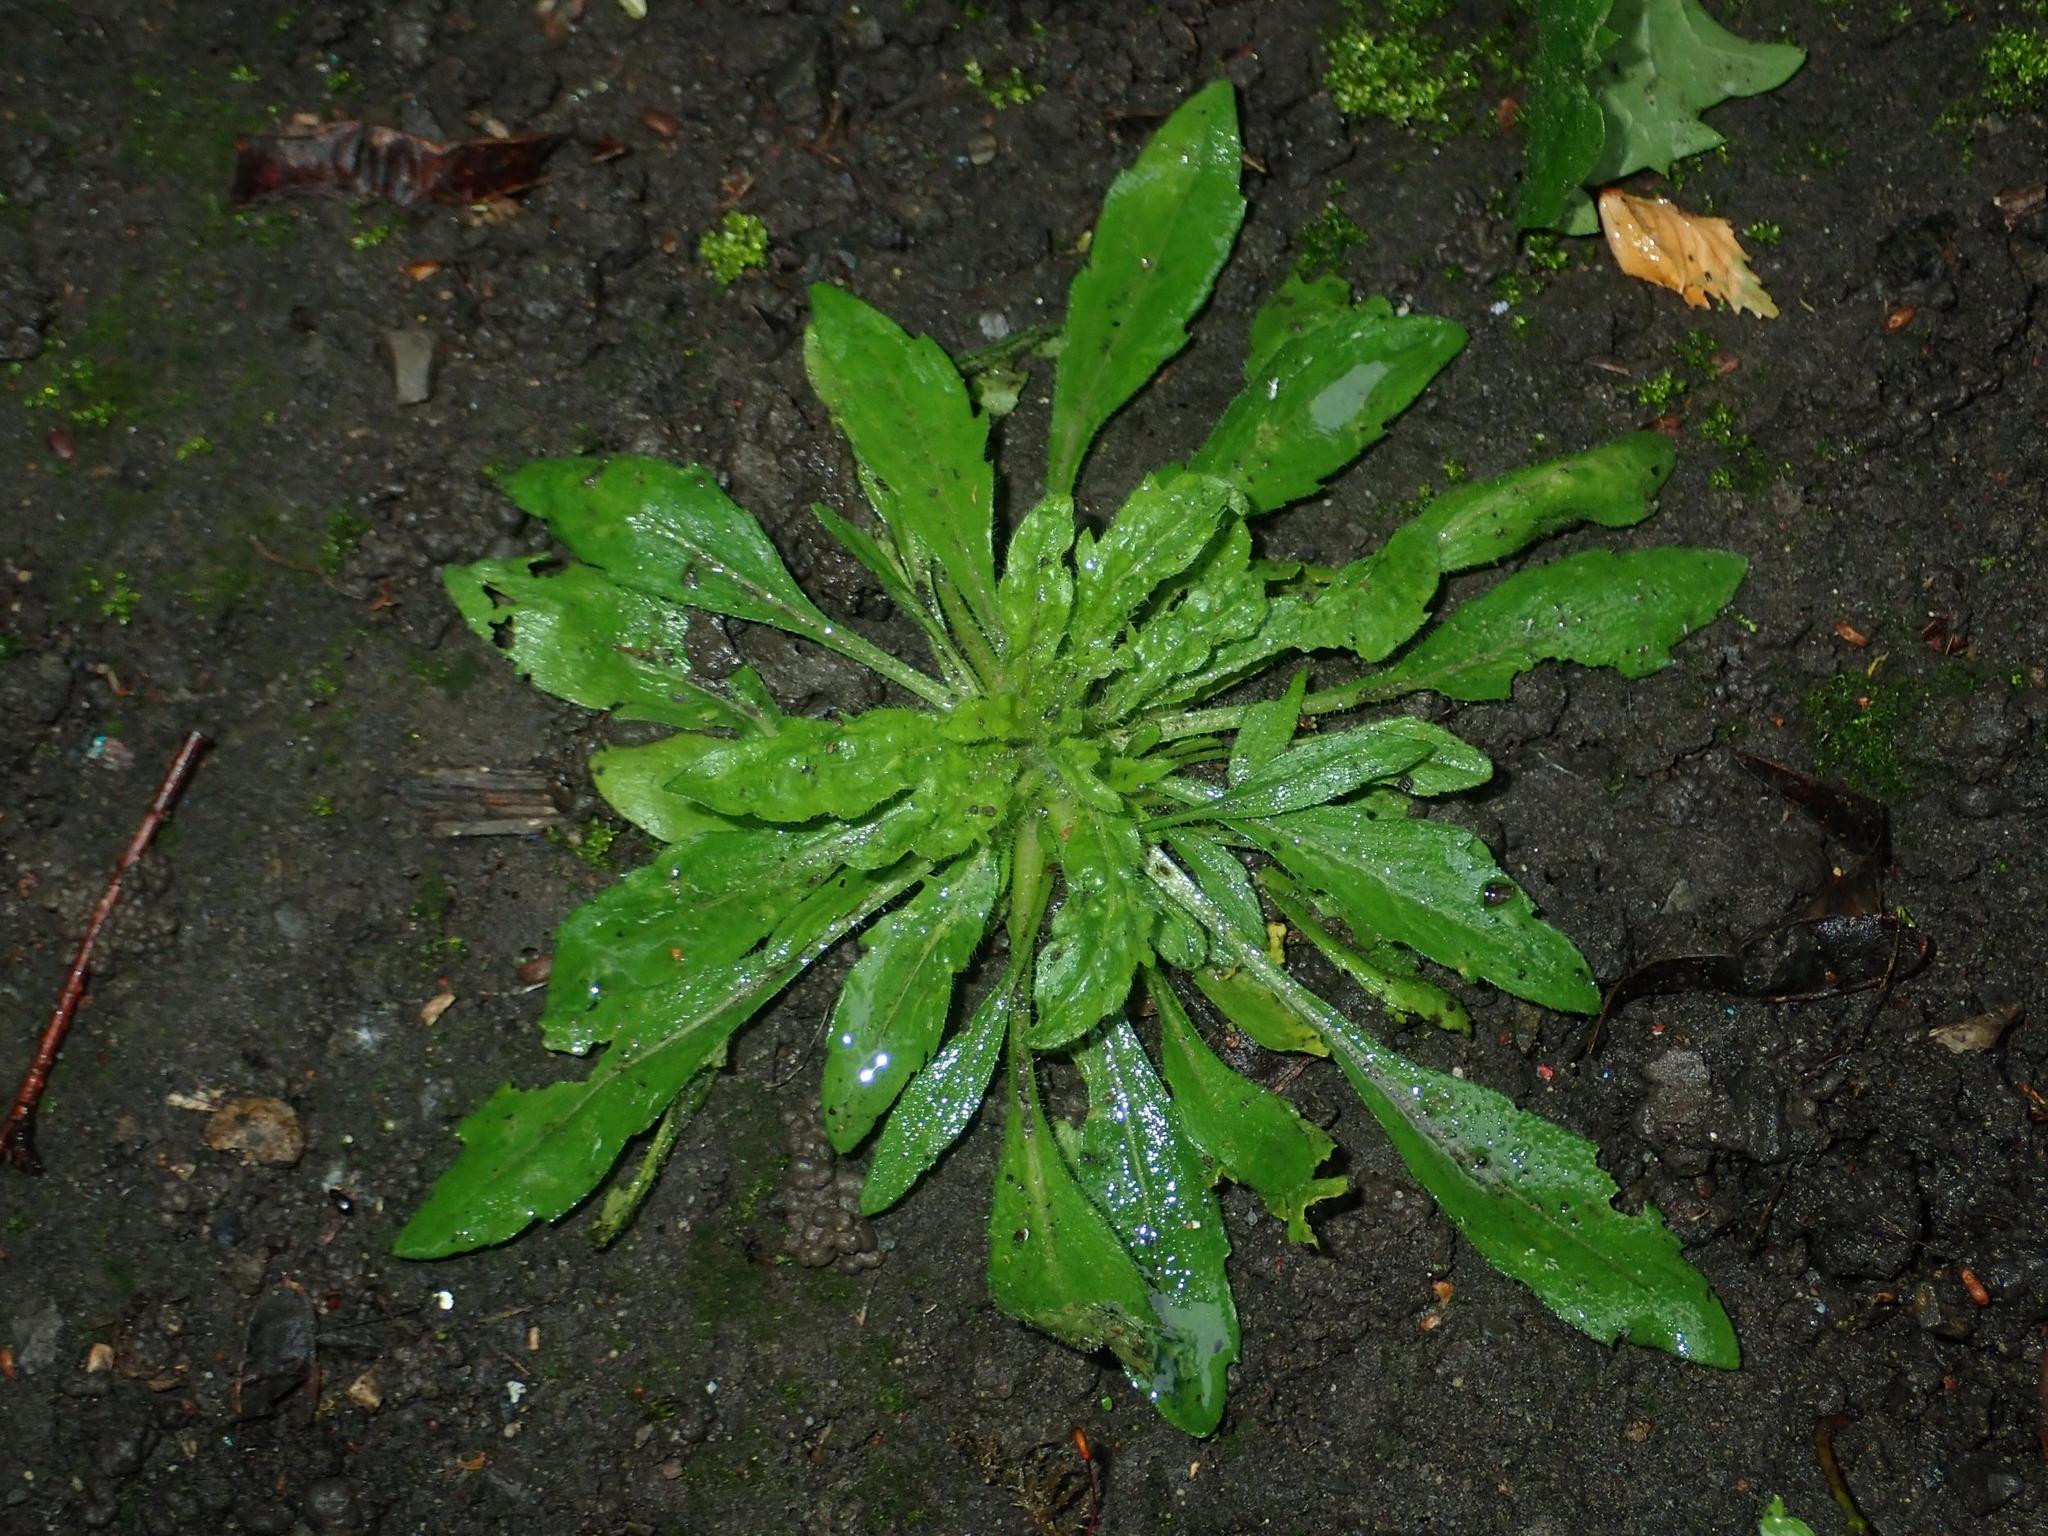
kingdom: Plantae
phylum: Tracheophyta
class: Magnoliopsida
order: Asterales
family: Asteraceae
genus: Erigeron
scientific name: Erigeron canadensis
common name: Canadian fleabane
